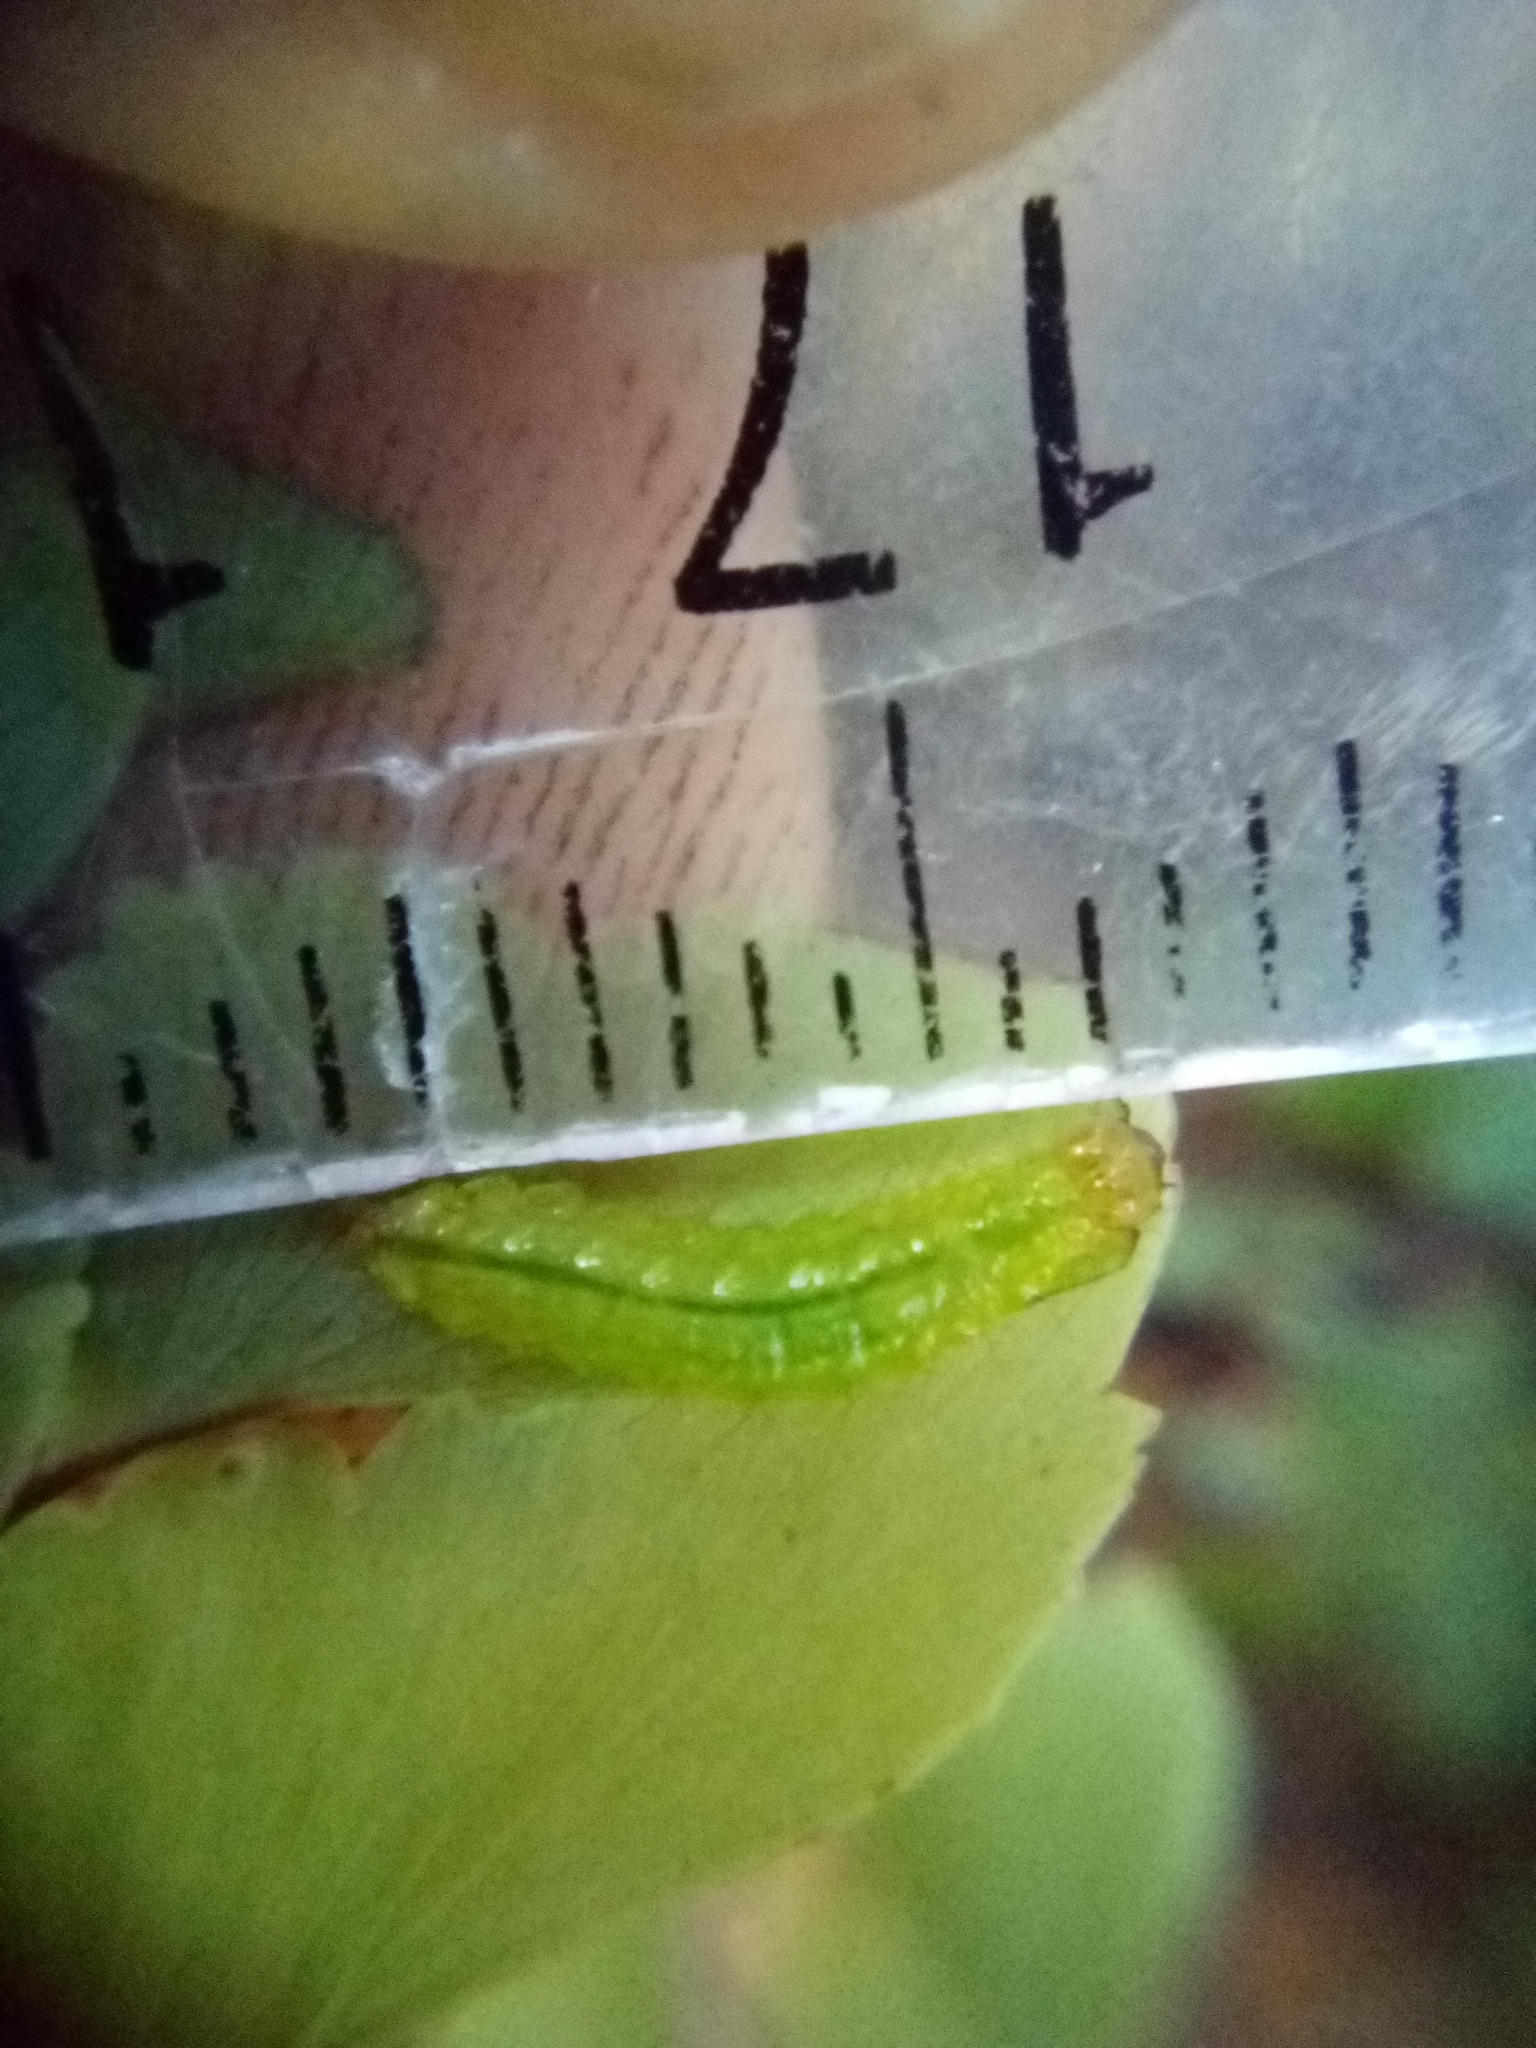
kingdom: Animalia
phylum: Arthropoda
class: Insecta
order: Lepidoptera
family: Pyralidae
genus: Musotima
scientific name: Musotima aduncalis
